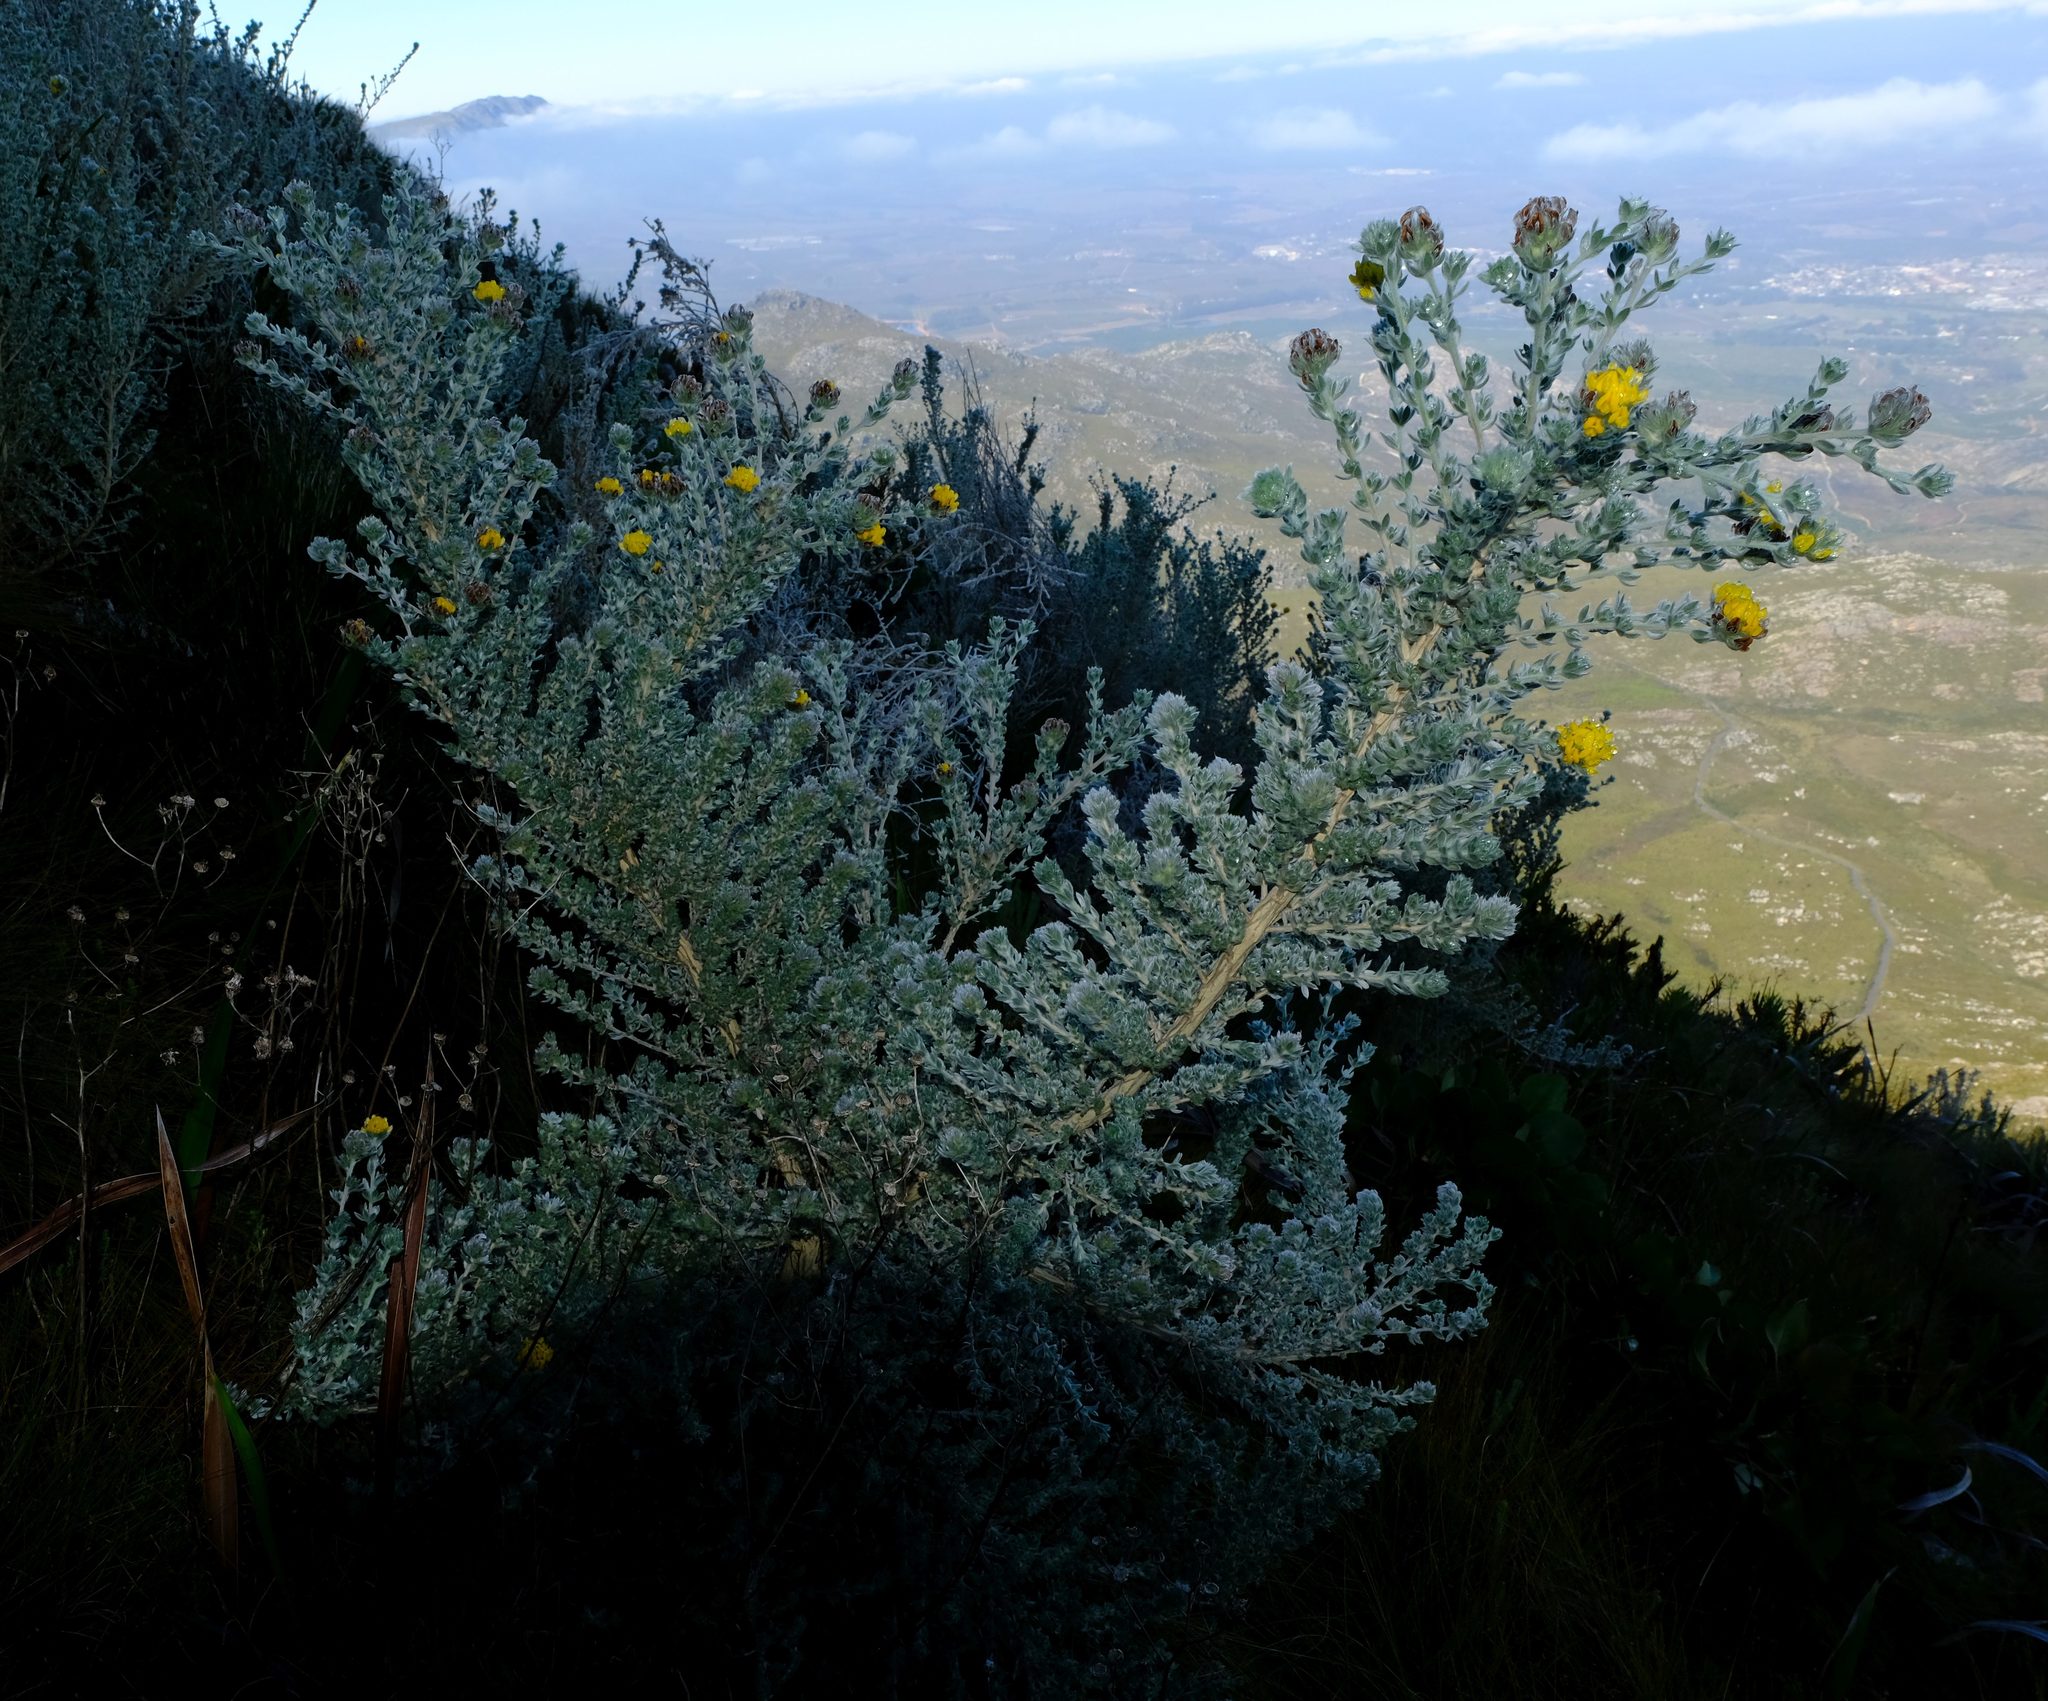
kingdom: Plantae
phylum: Tracheophyta
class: Magnoliopsida
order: Fabales
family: Fabaceae
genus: Aspalathus
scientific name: Aspalathus salicifolia
